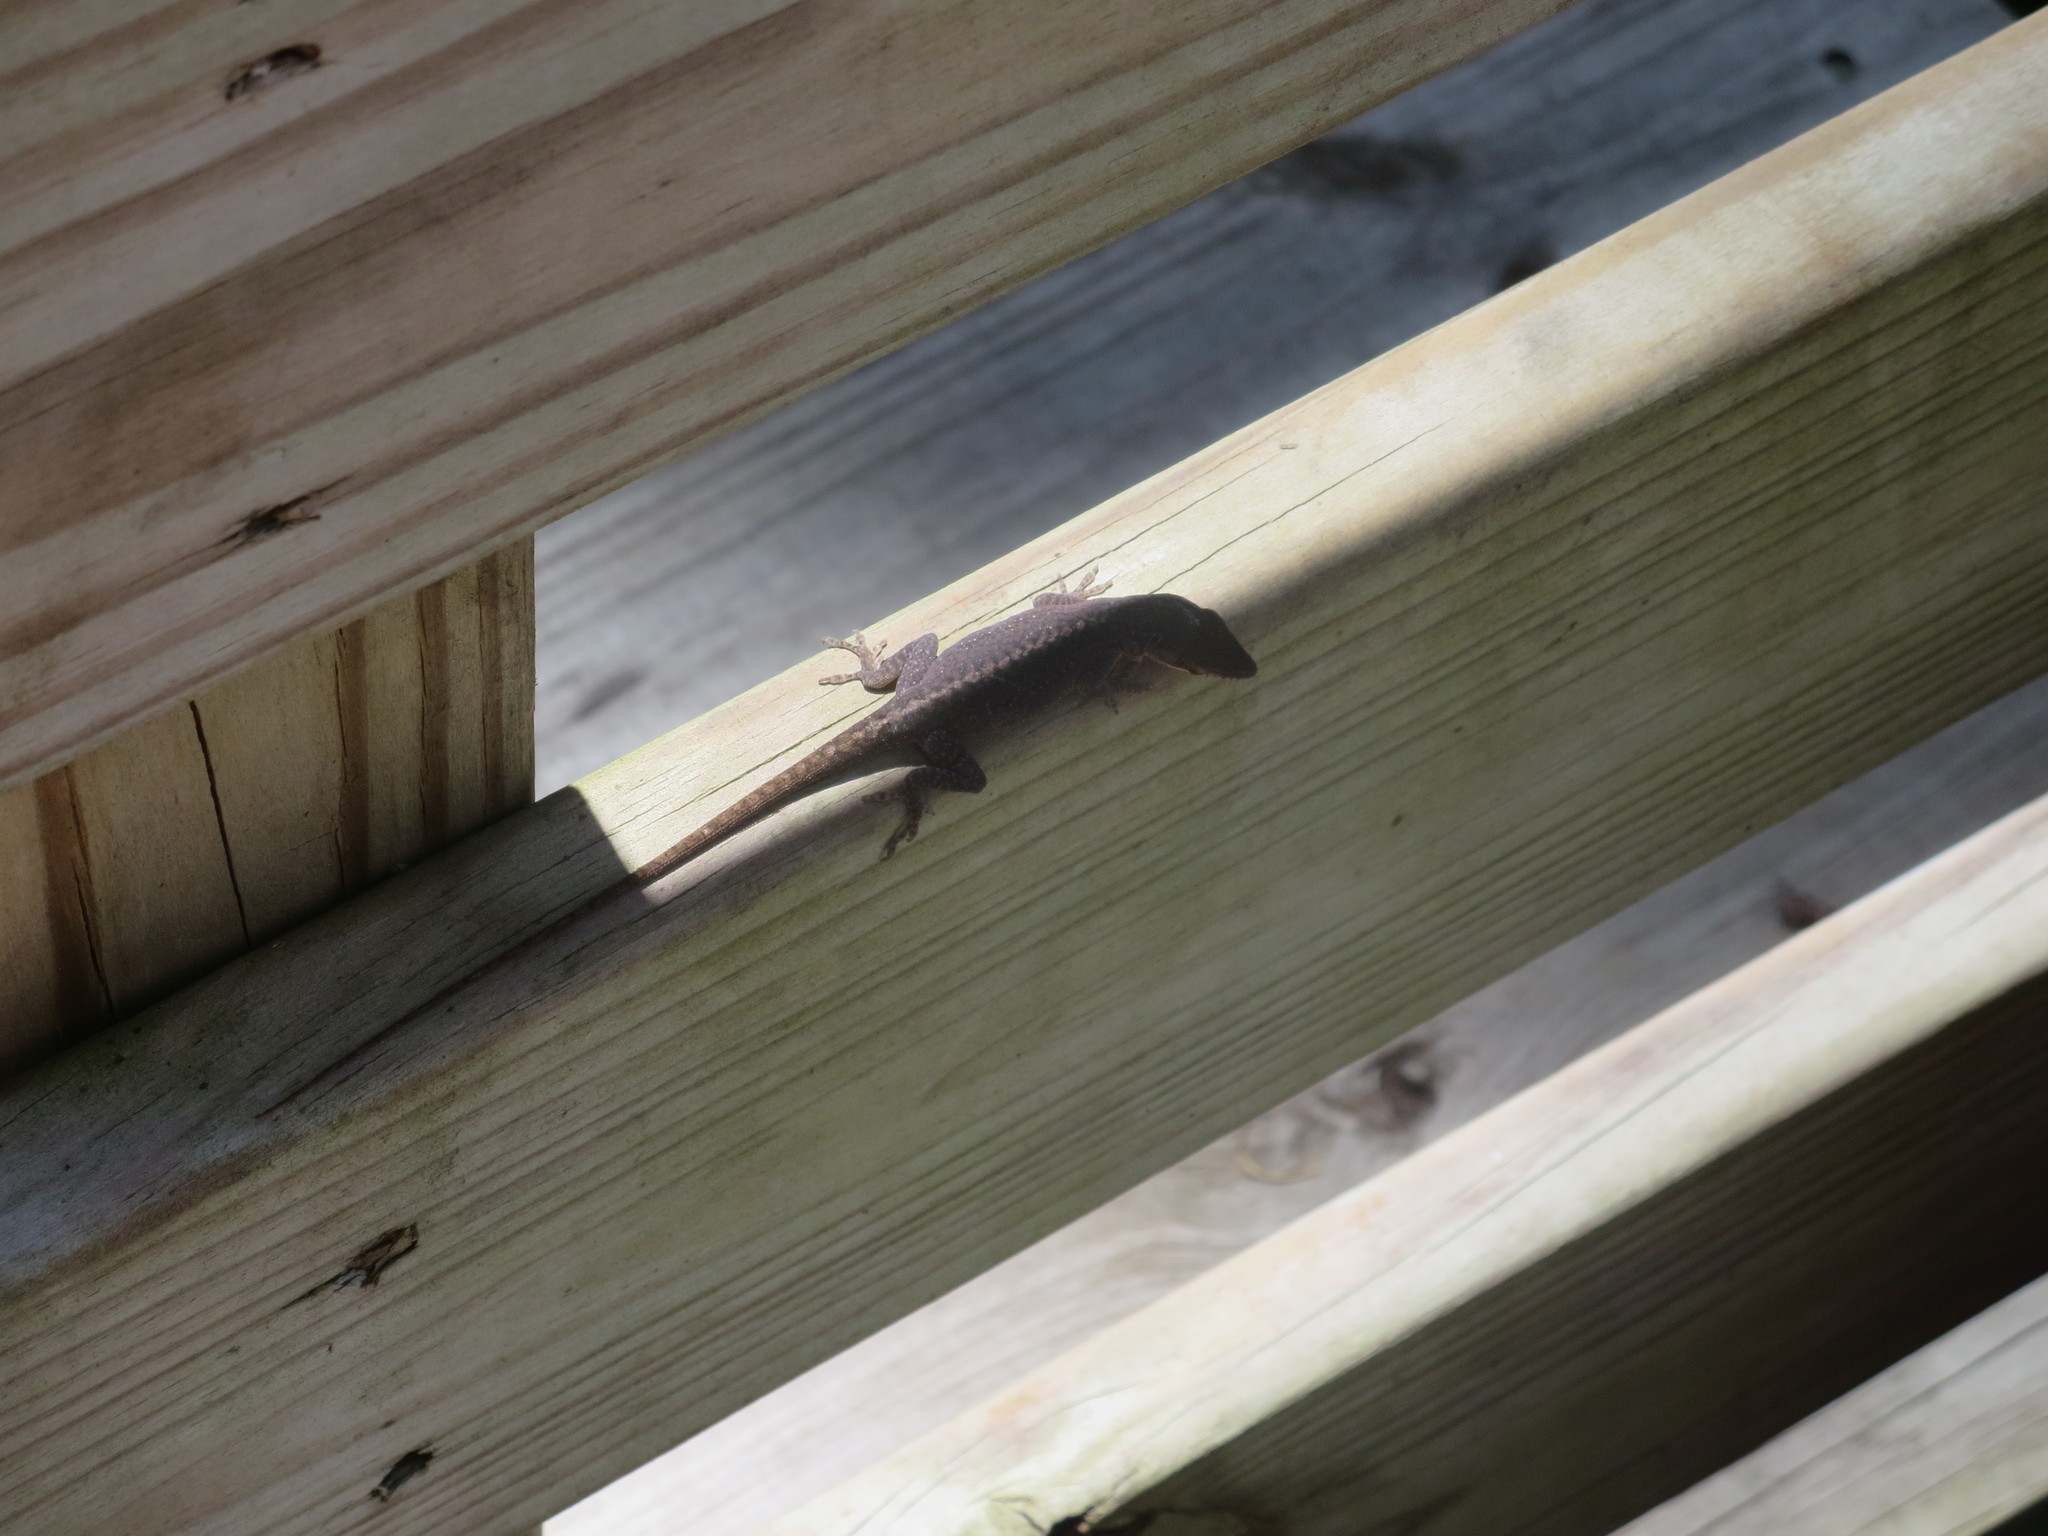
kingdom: Animalia
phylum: Chordata
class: Squamata
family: Dactyloidae
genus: Anolis
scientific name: Anolis carolinensis
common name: Green anole
